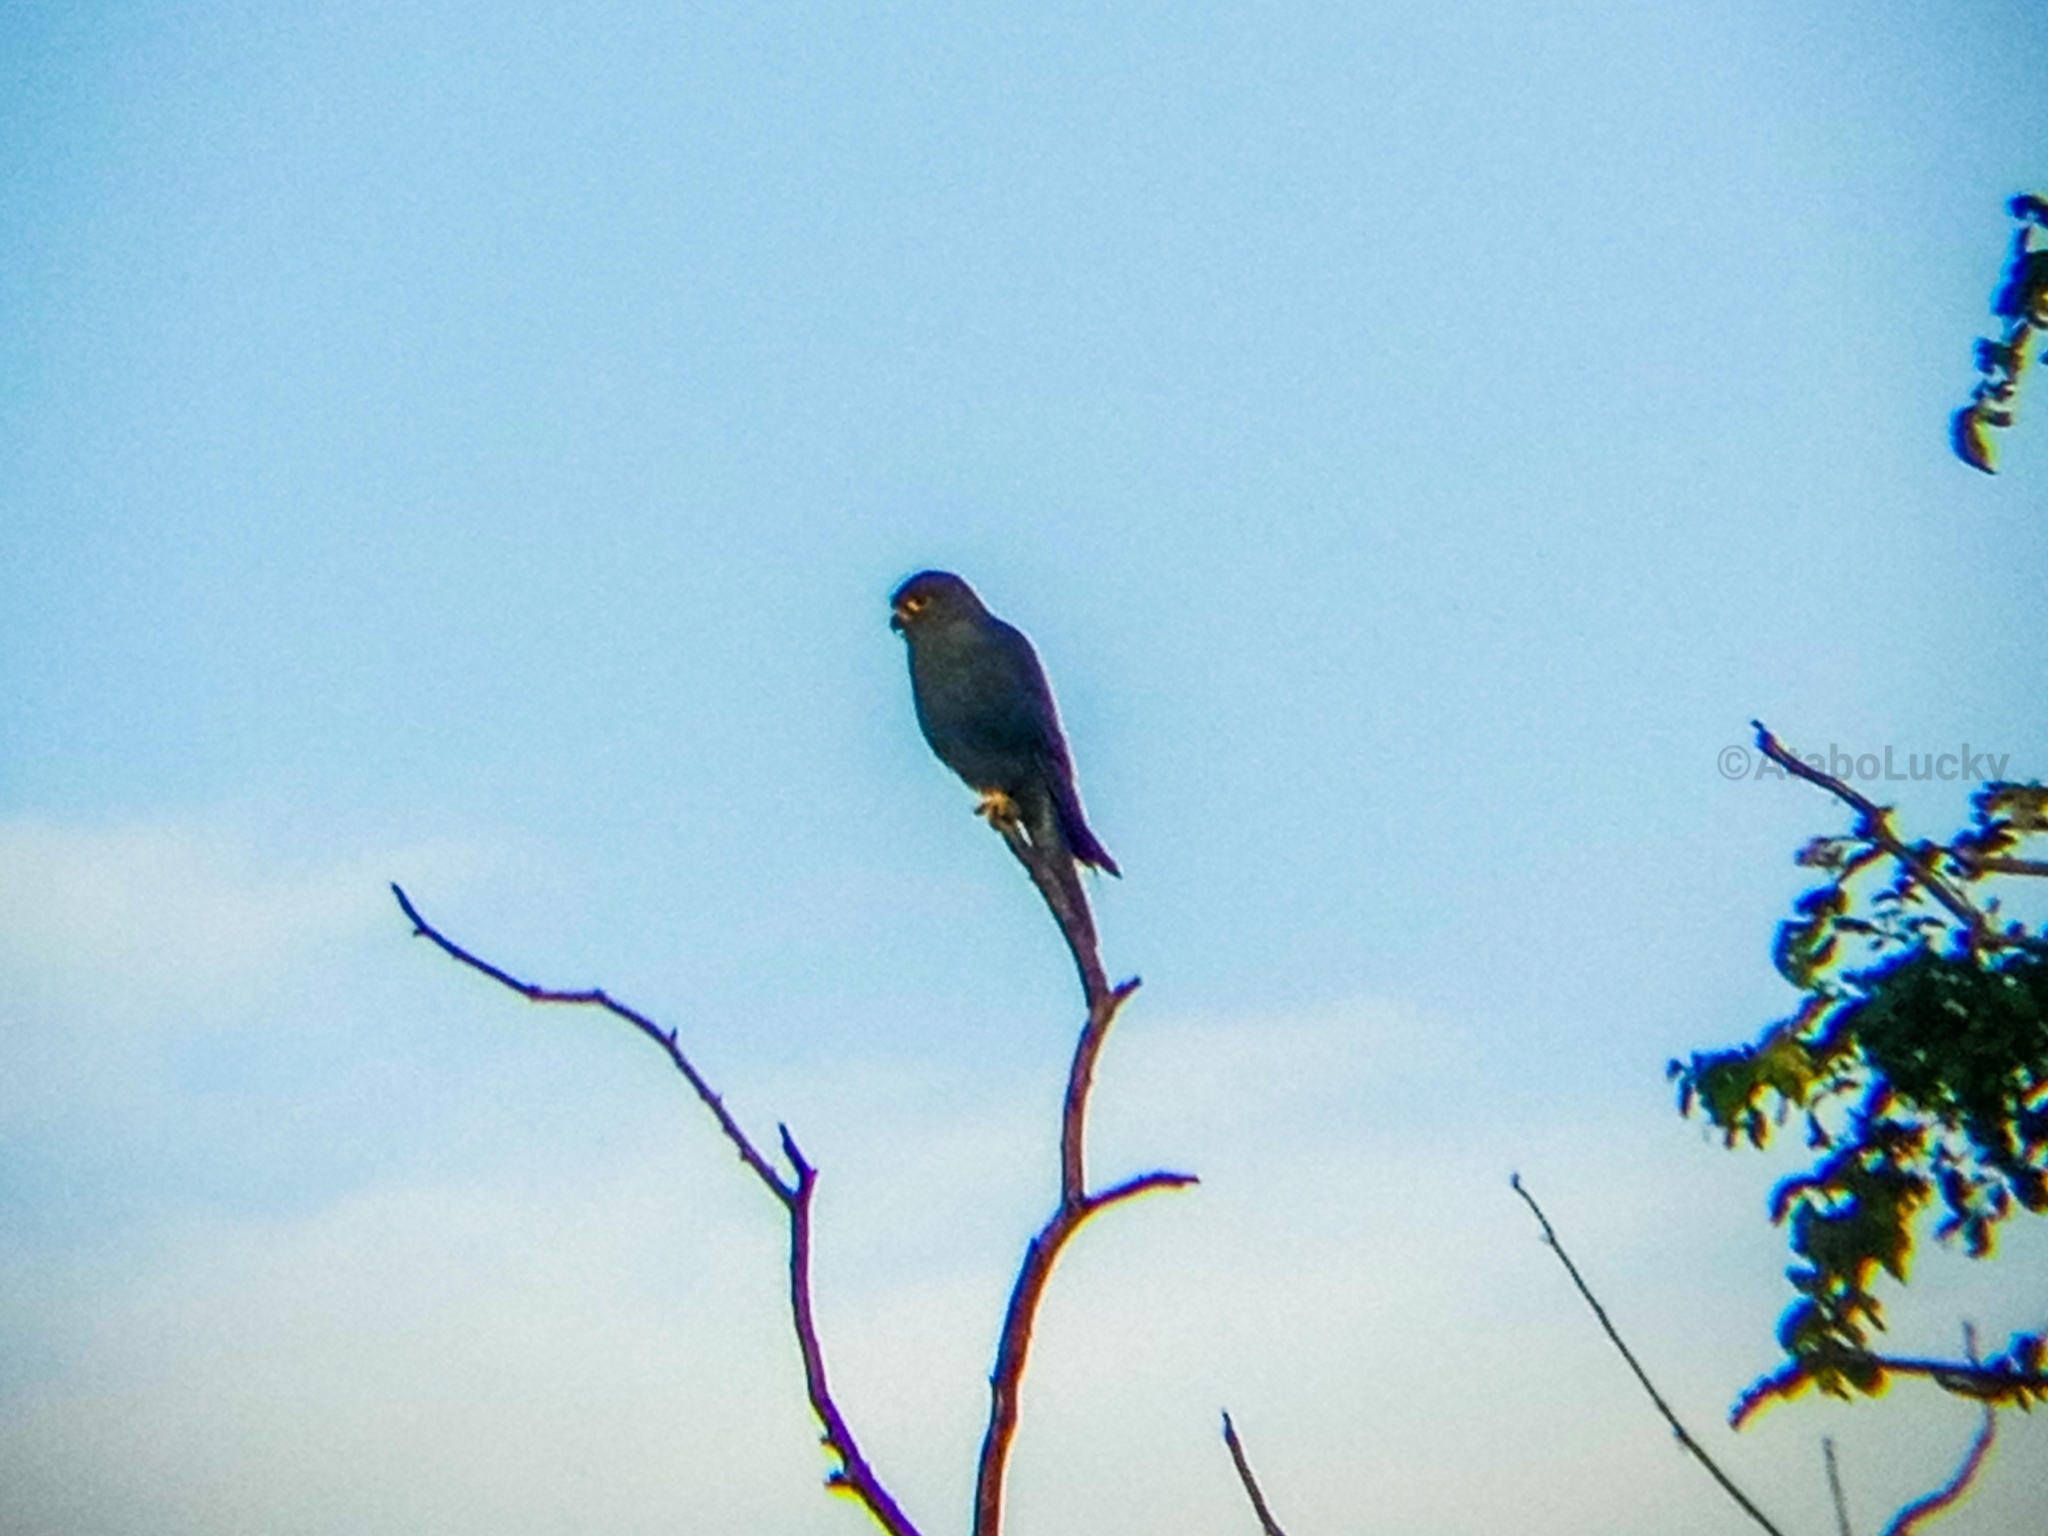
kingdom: Animalia
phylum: Chordata
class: Aves
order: Falconiformes
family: Falconidae
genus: Falco
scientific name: Falco ardosiaceus
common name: Grey kestrel
